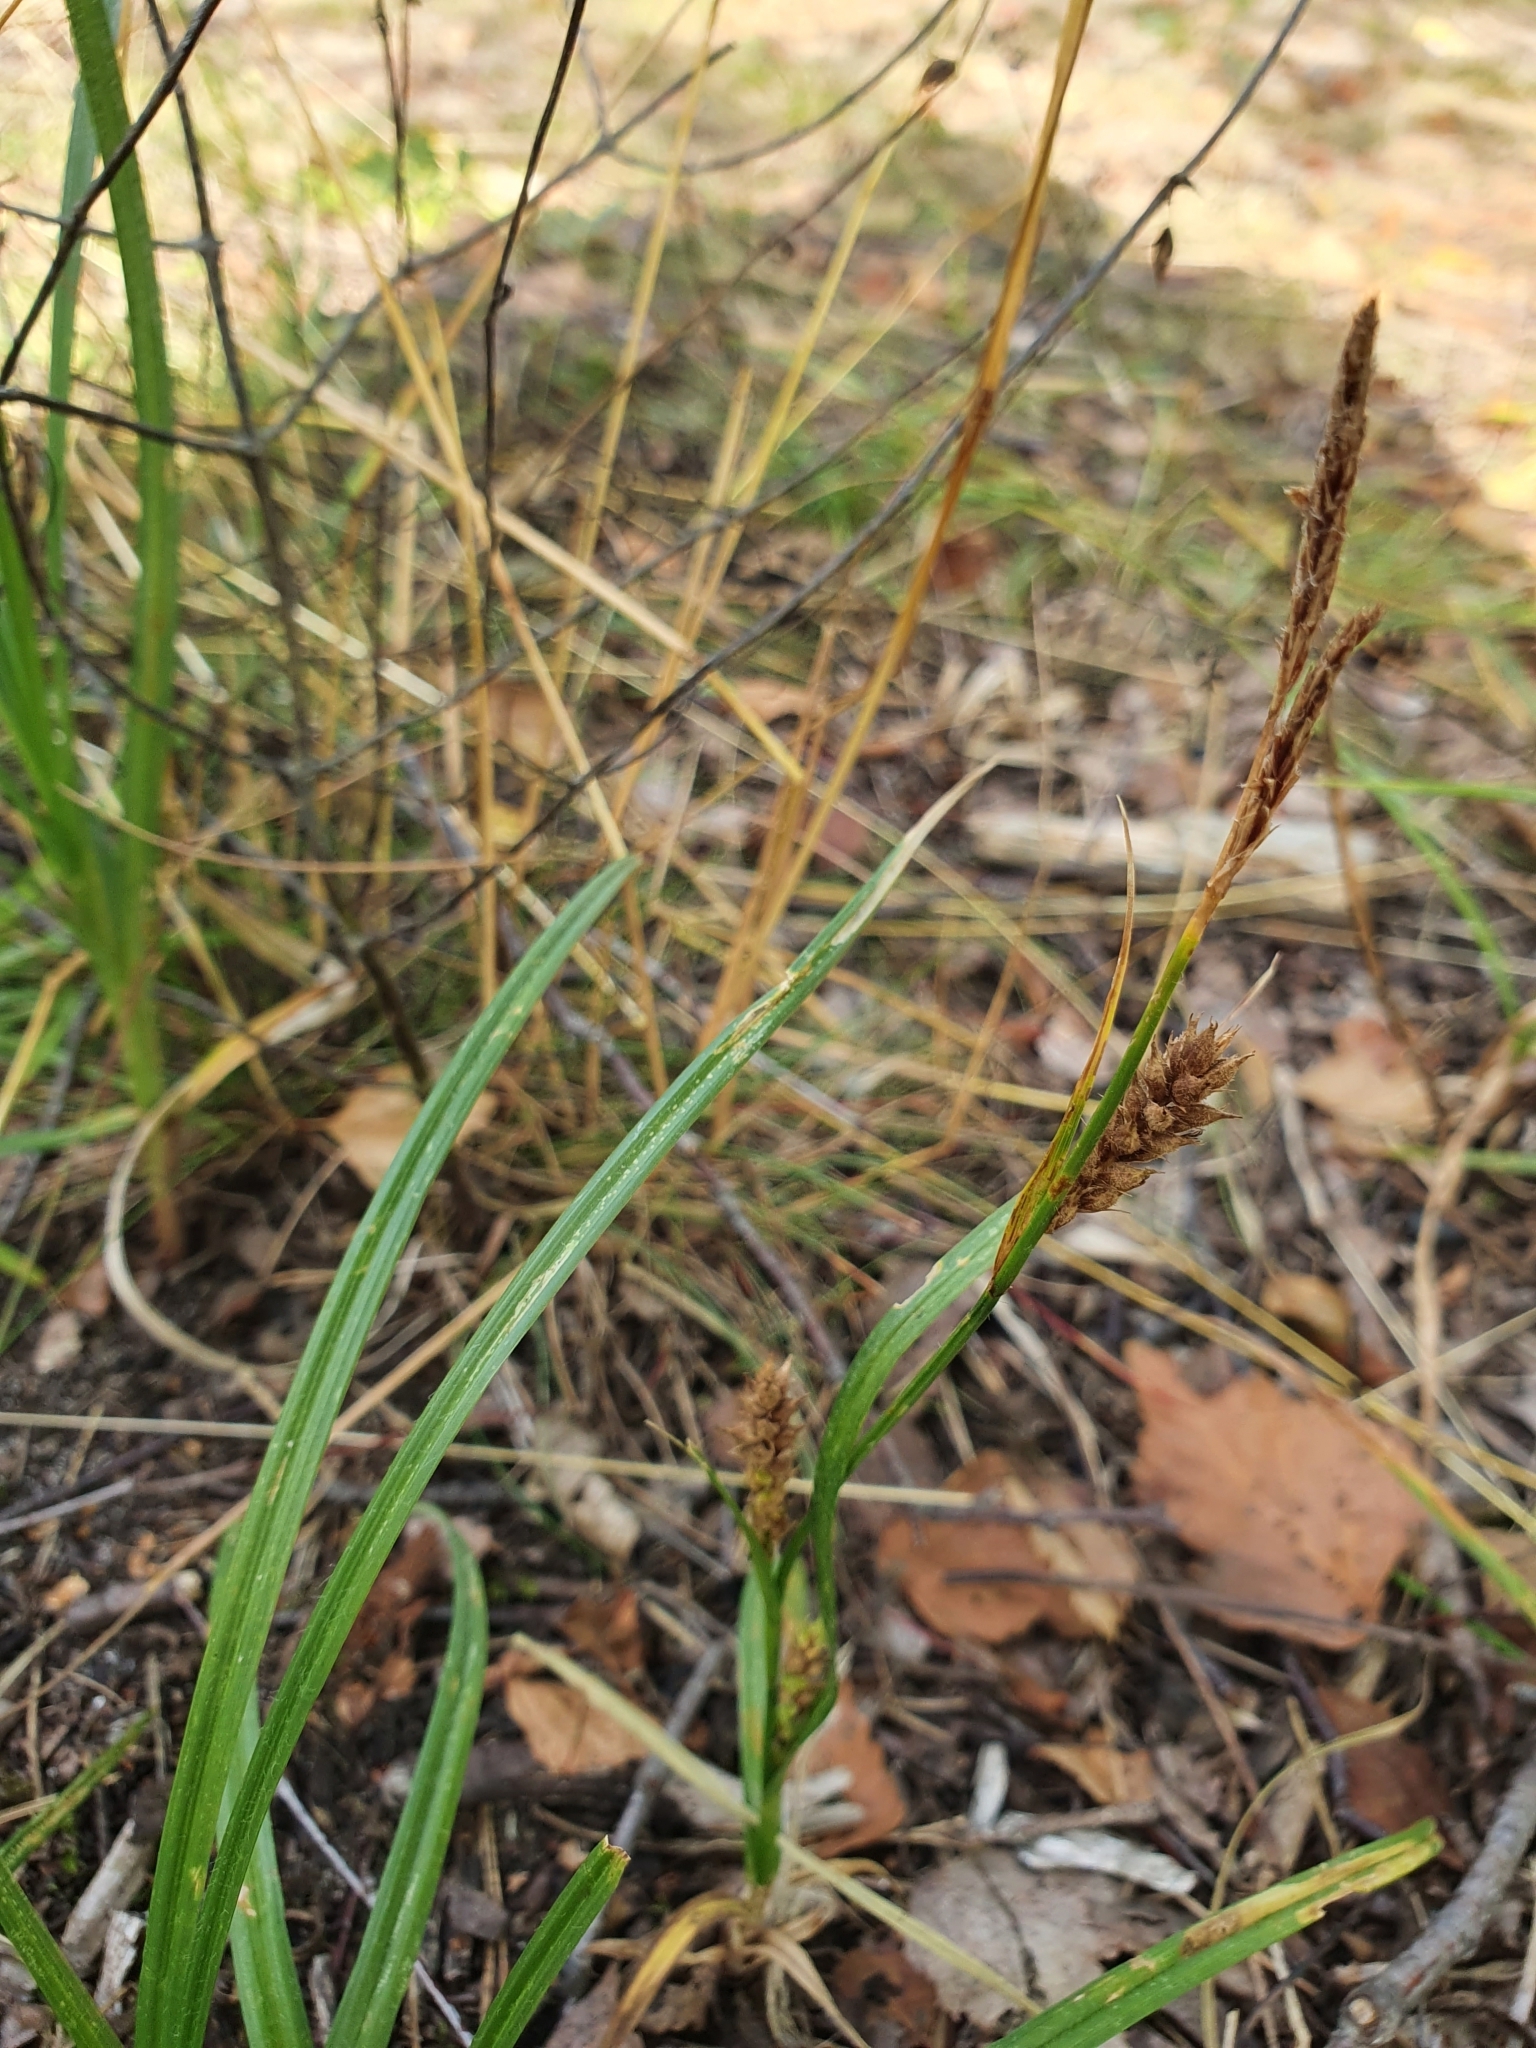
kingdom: Plantae
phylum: Tracheophyta
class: Liliopsida
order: Poales
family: Cyperaceae
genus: Carex
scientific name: Carex hirta
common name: Hairy sedge
